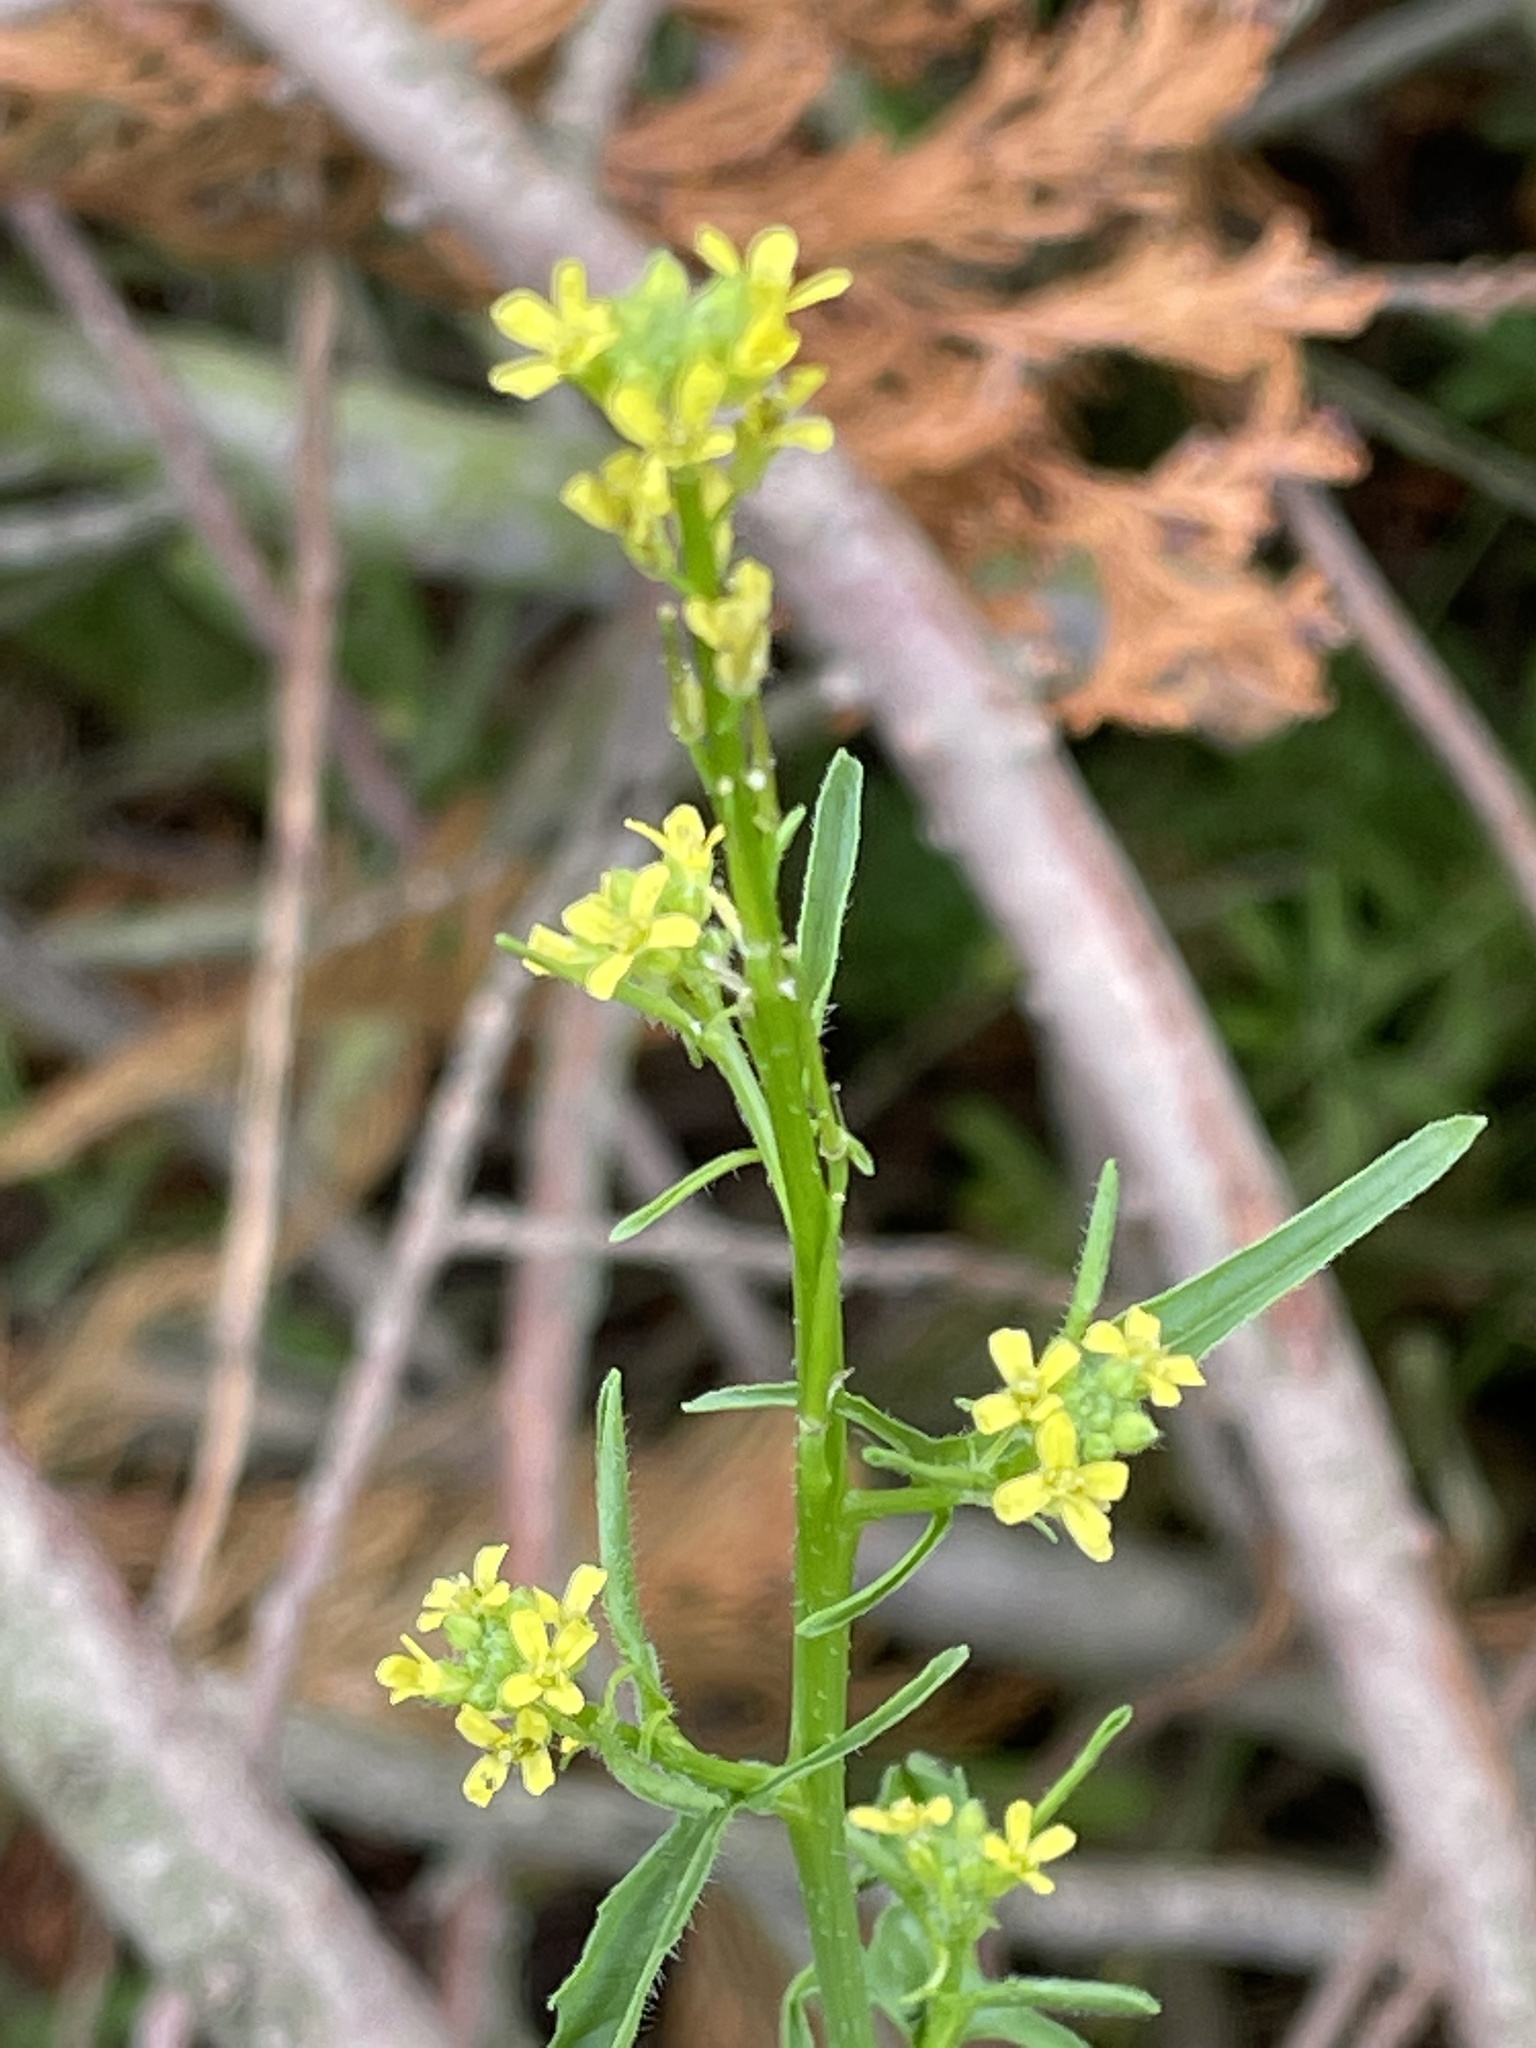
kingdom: Plantae
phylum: Tracheophyta
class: Magnoliopsida
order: Brassicales
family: Brassicaceae
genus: Sisymbrium
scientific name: Sisymbrium officinale
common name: Hedge mustard
